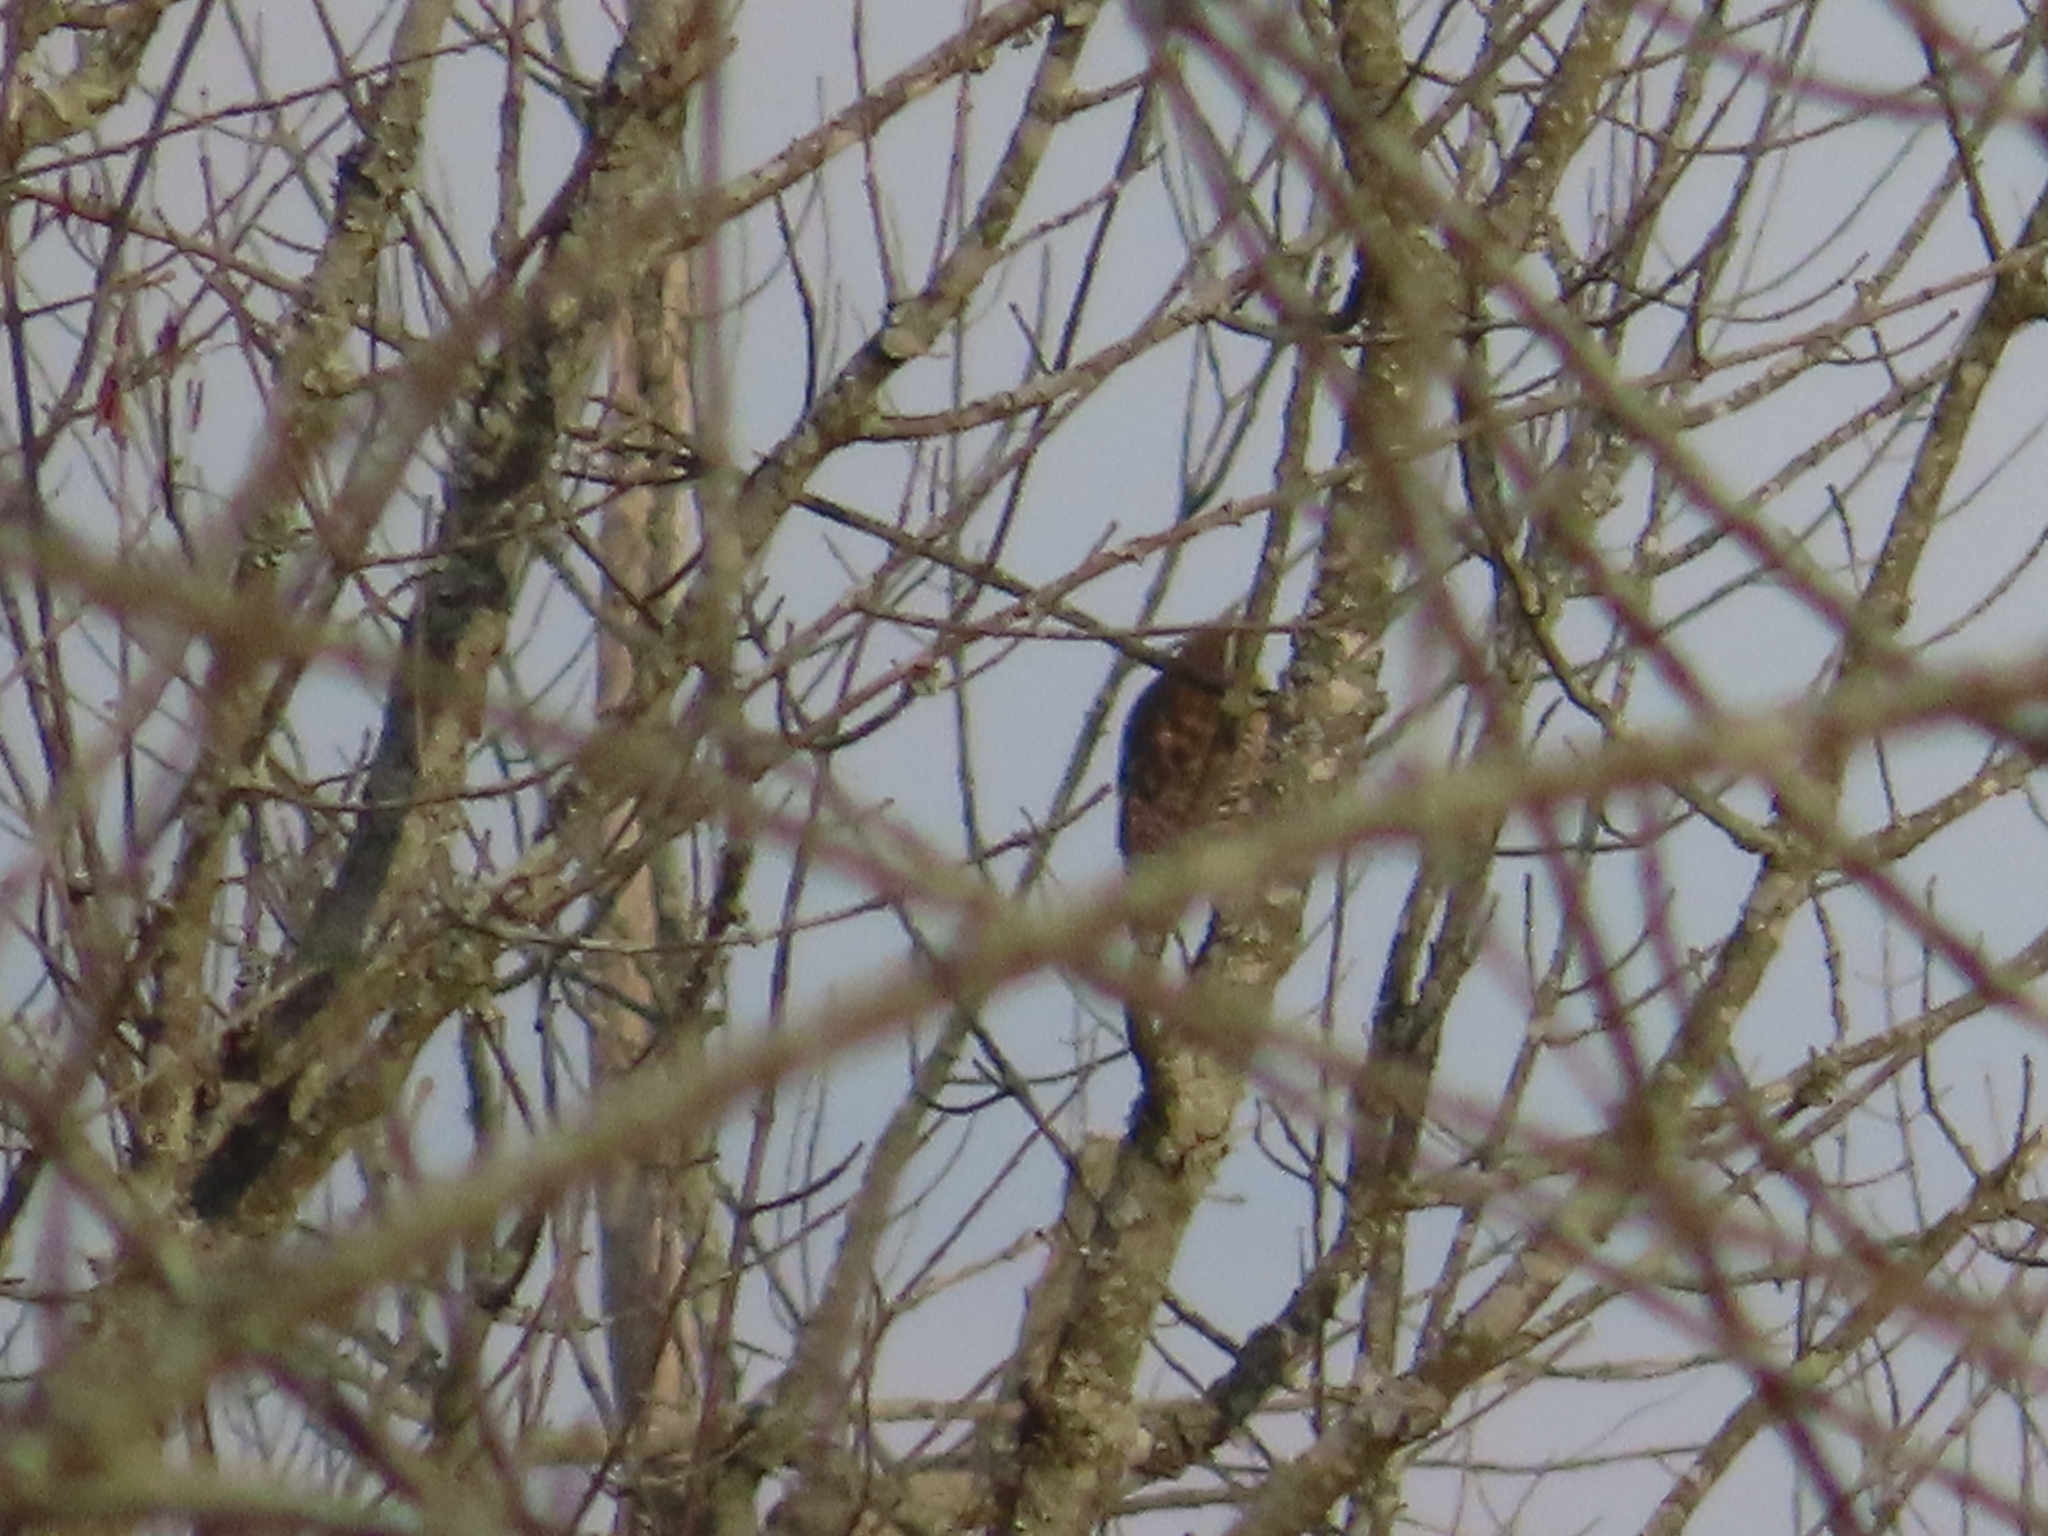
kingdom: Animalia
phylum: Chordata
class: Aves
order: Accipitriformes
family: Accipitridae
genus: Buteo
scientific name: Buteo lineatus
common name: Red-shouldered hawk
